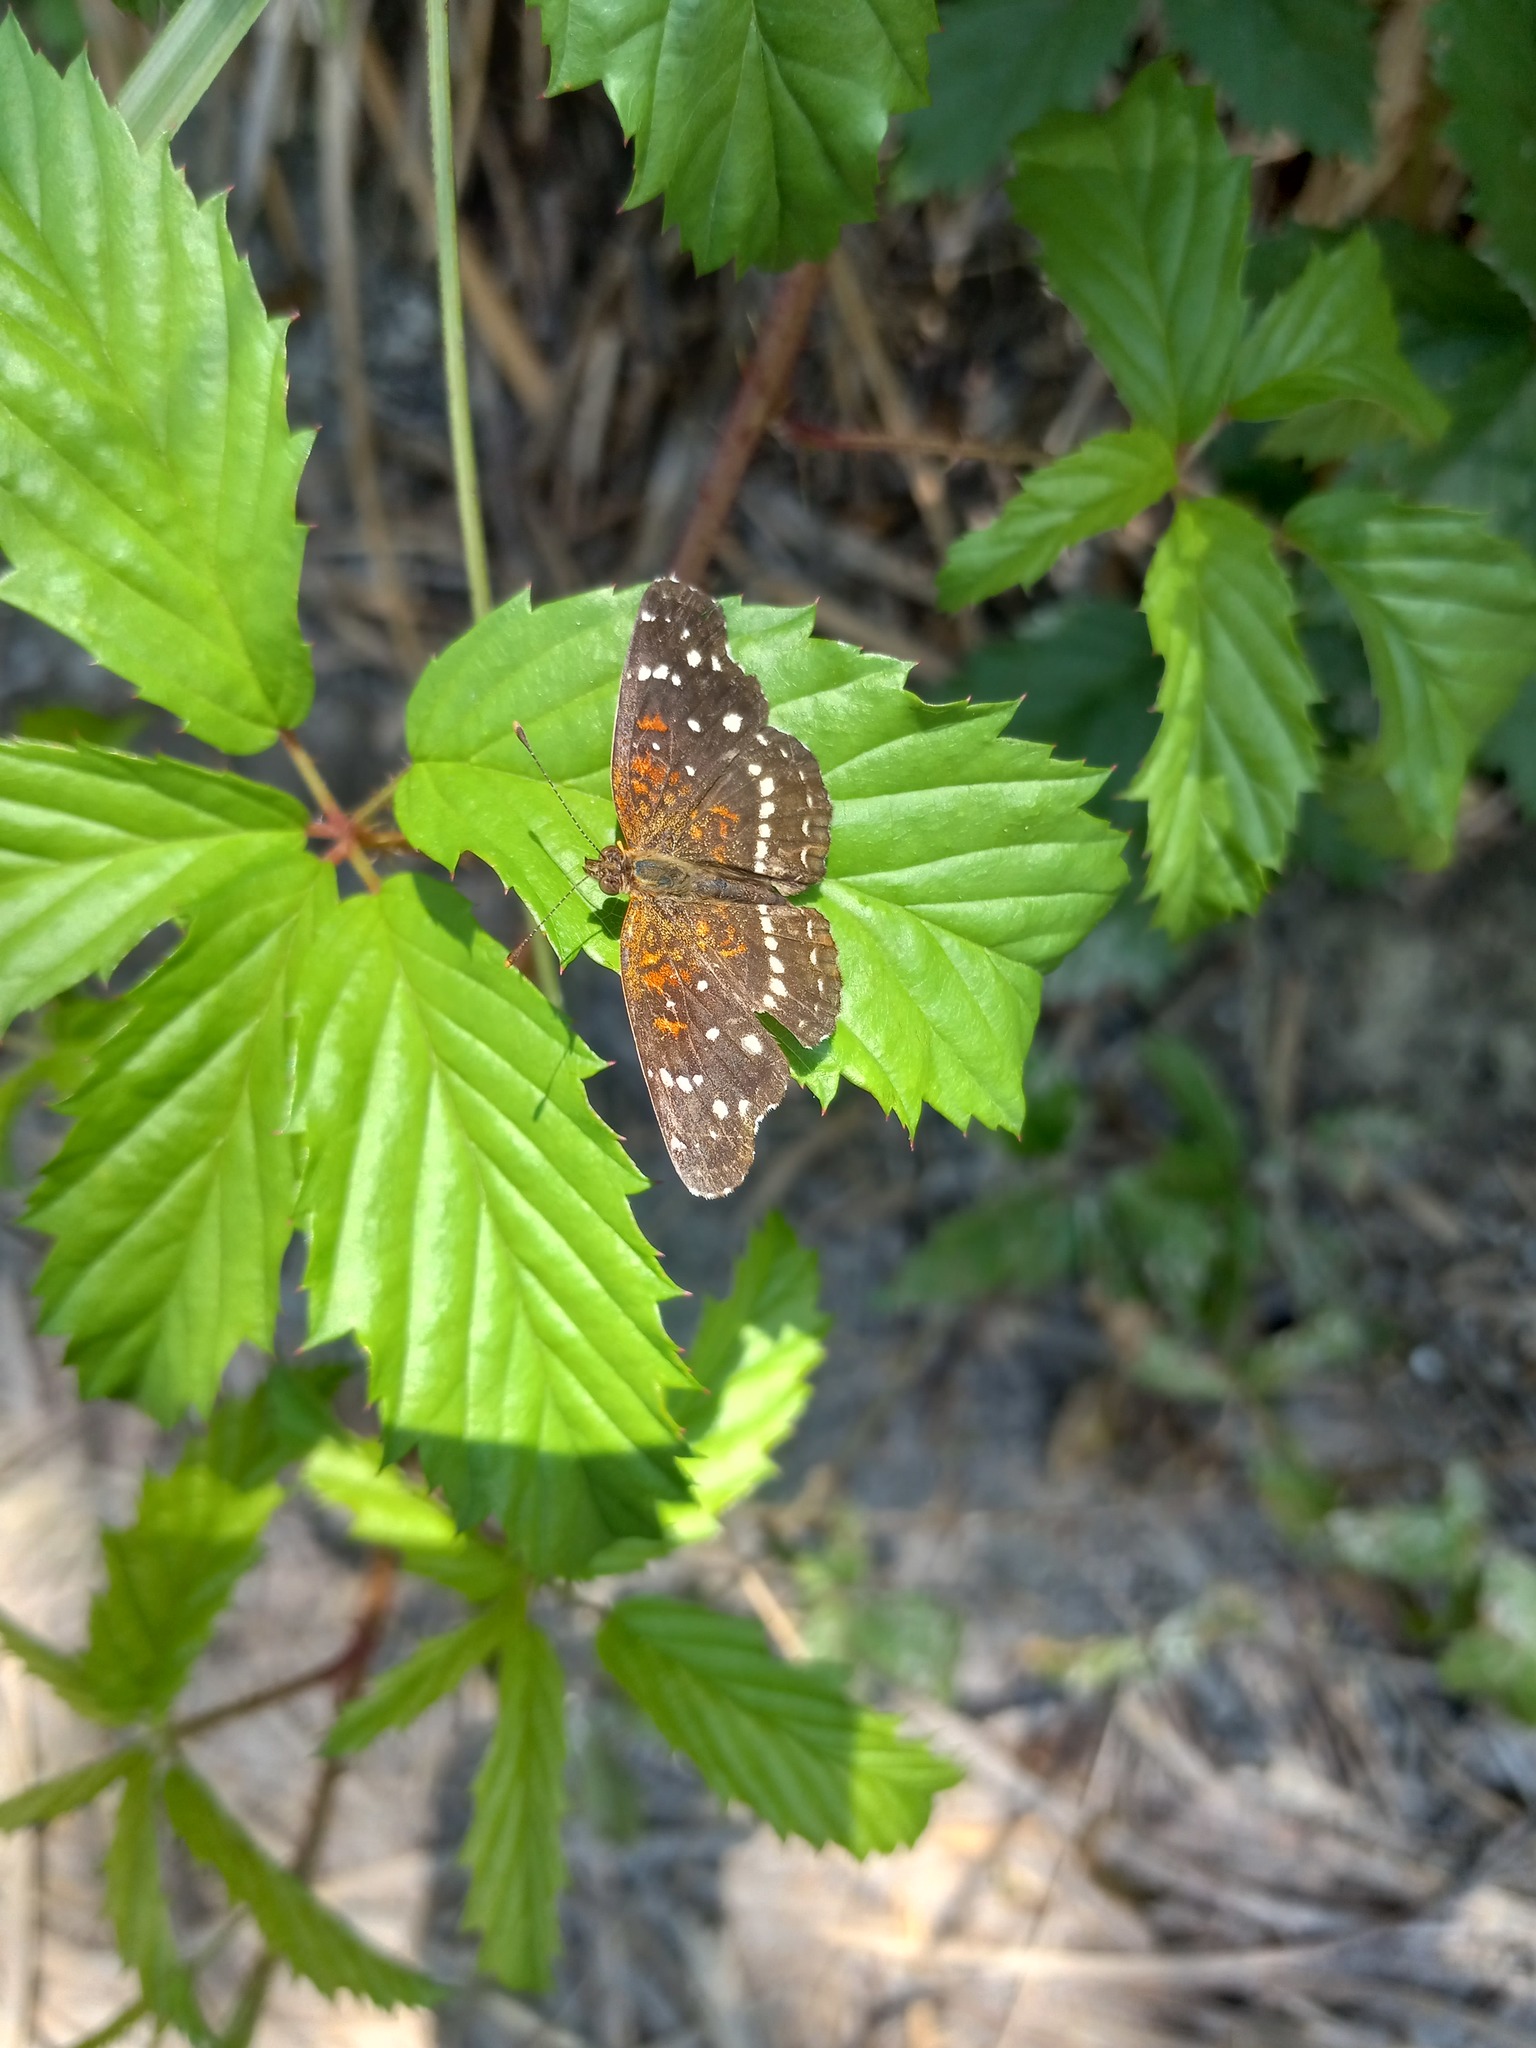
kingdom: Animalia
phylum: Arthropoda
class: Insecta
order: Lepidoptera
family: Nymphalidae
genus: Anthanassa
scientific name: Anthanassa texana
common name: Texan crescent
